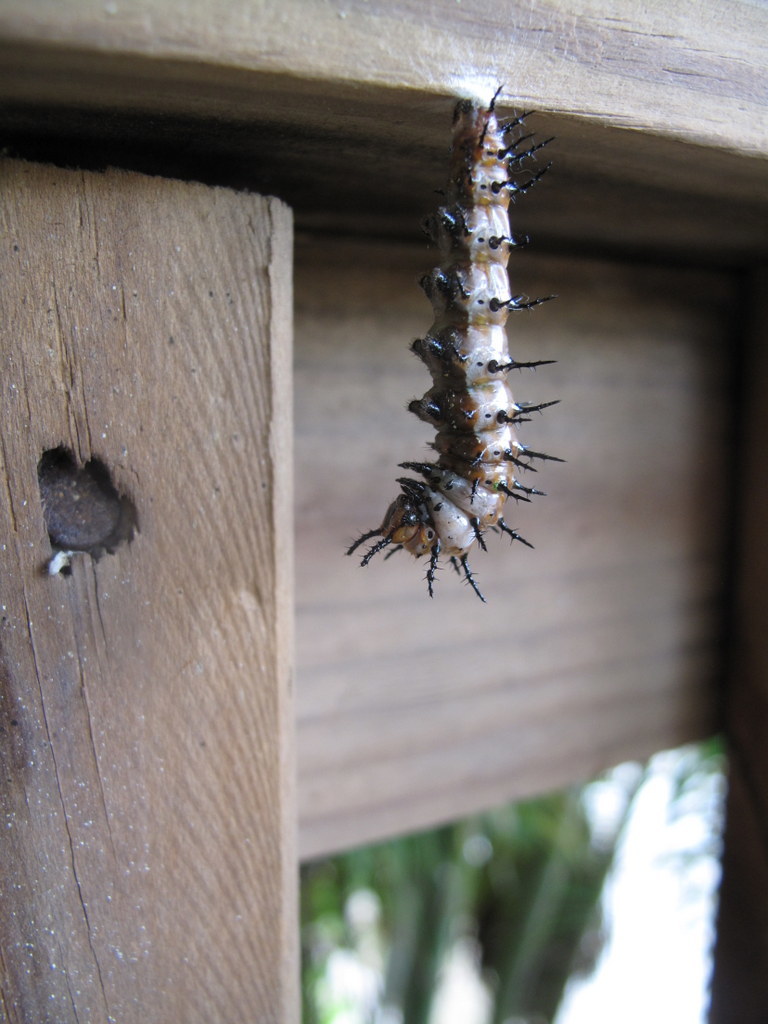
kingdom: Animalia
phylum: Arthropoda
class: Insecta
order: Lepidoptera
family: Nymphalidae
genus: Dione
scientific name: Dione vanillae
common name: Gulf fritillary
